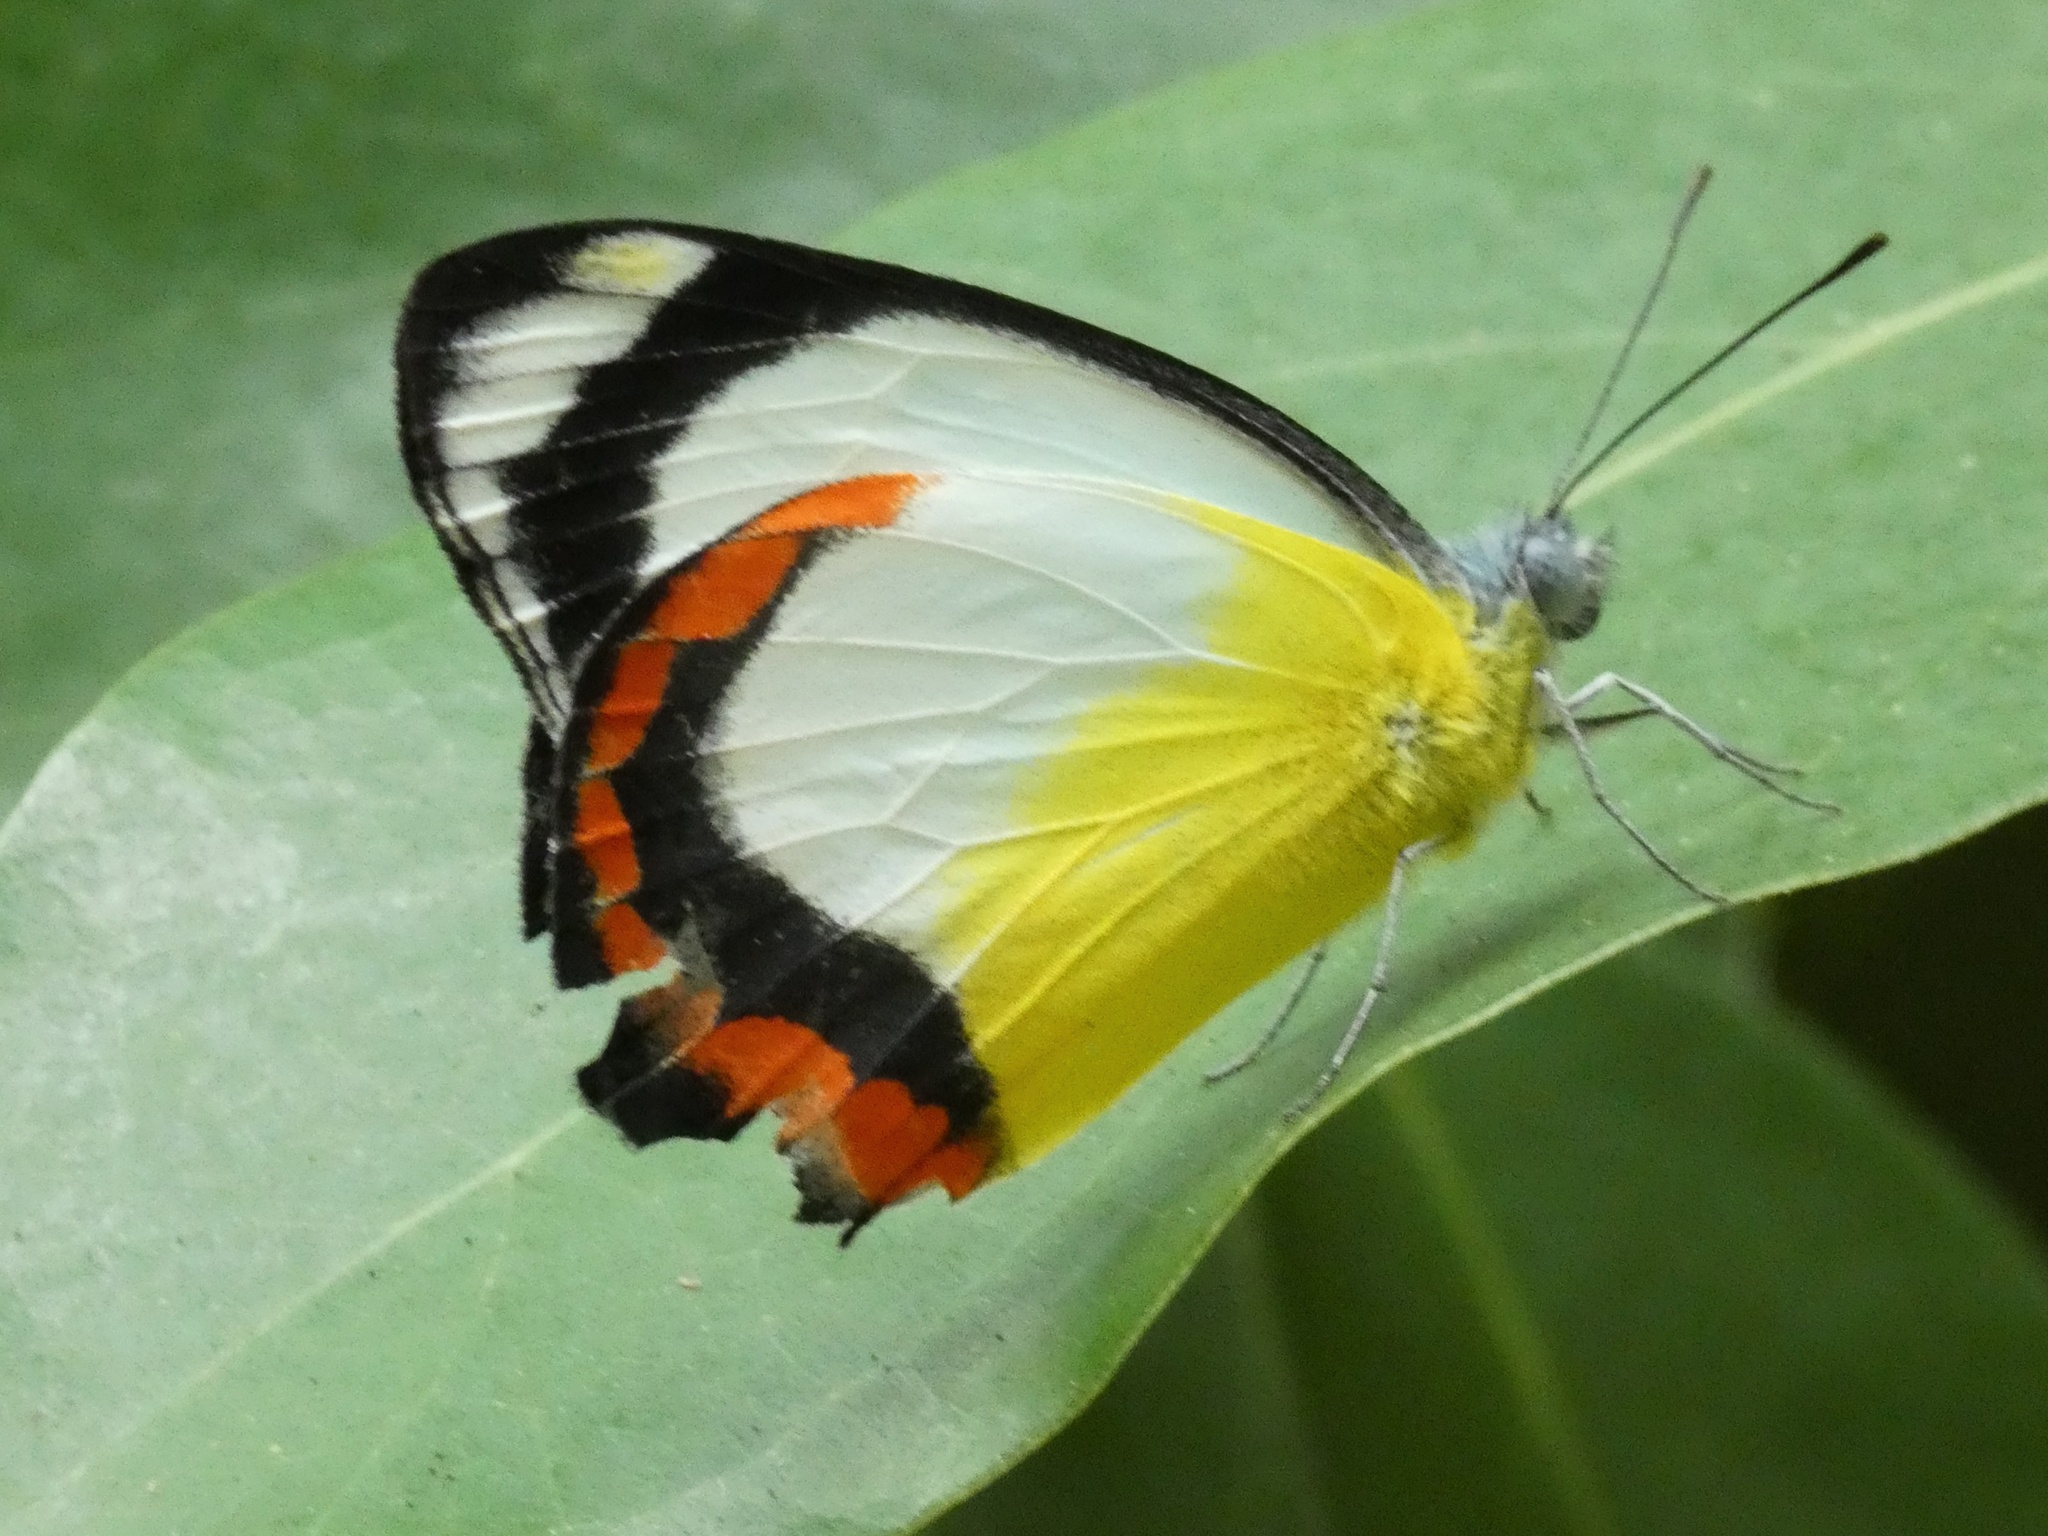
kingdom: Animalia
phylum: Arthropoda
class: Insecta
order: Lepidoptera
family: Pieridae
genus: Delias
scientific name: Delias mysis
